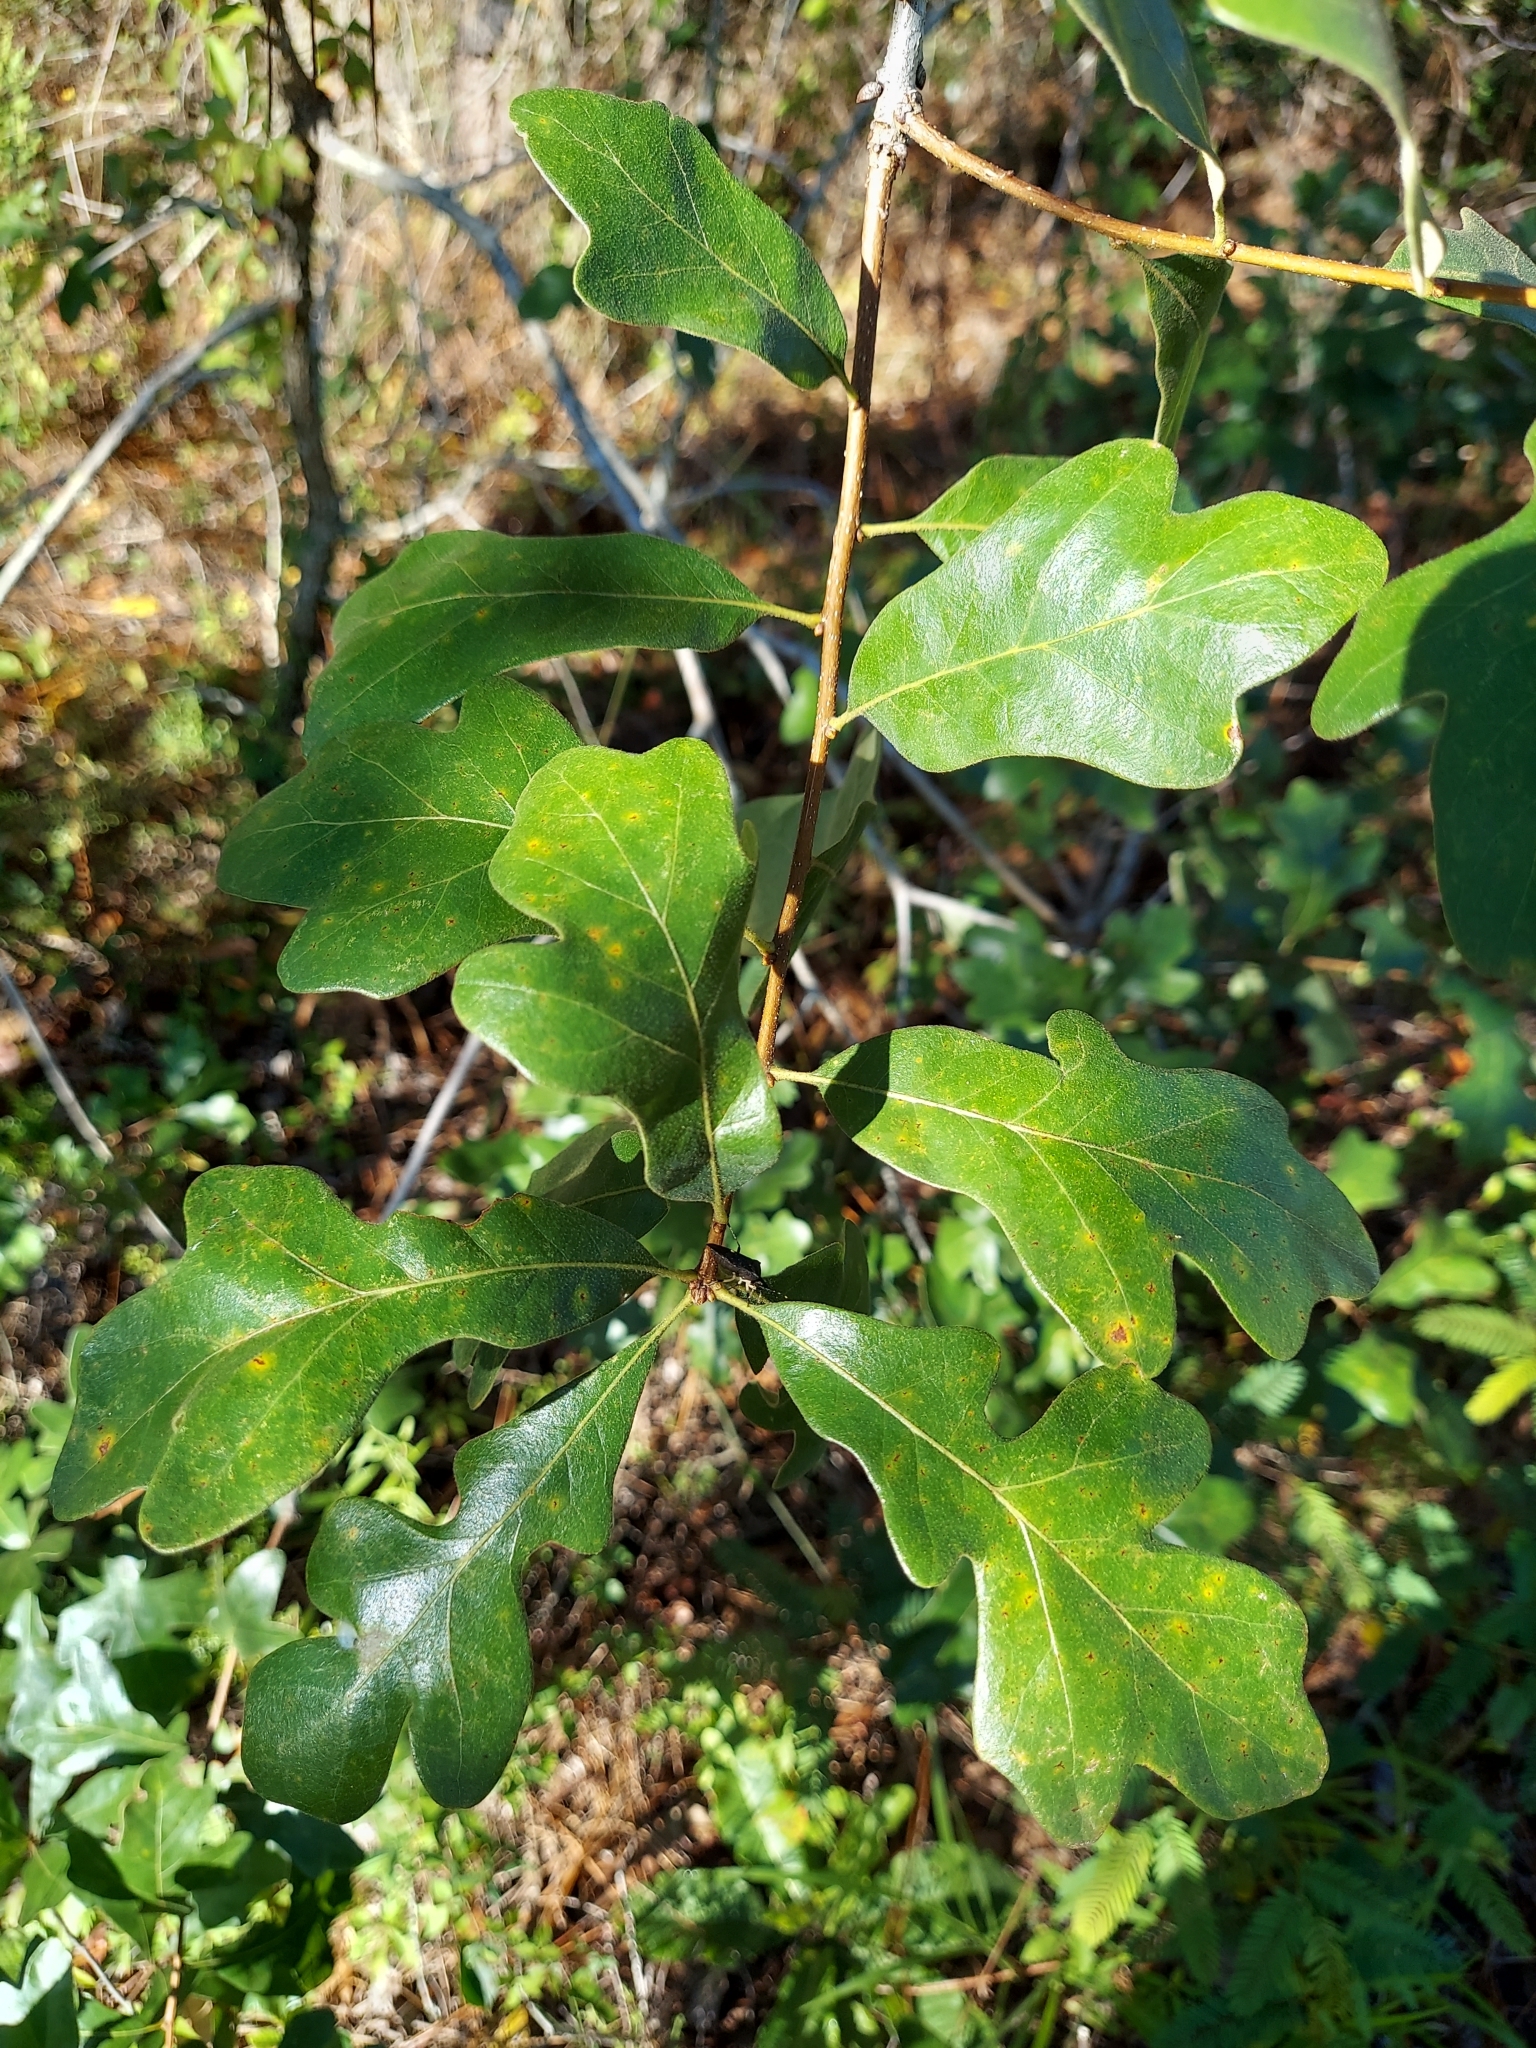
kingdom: Plantae
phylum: Tracheophyta
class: Magnoliopsida
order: Fagales
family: Fagaceae
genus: Quercus
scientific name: Quercus margaretiae
